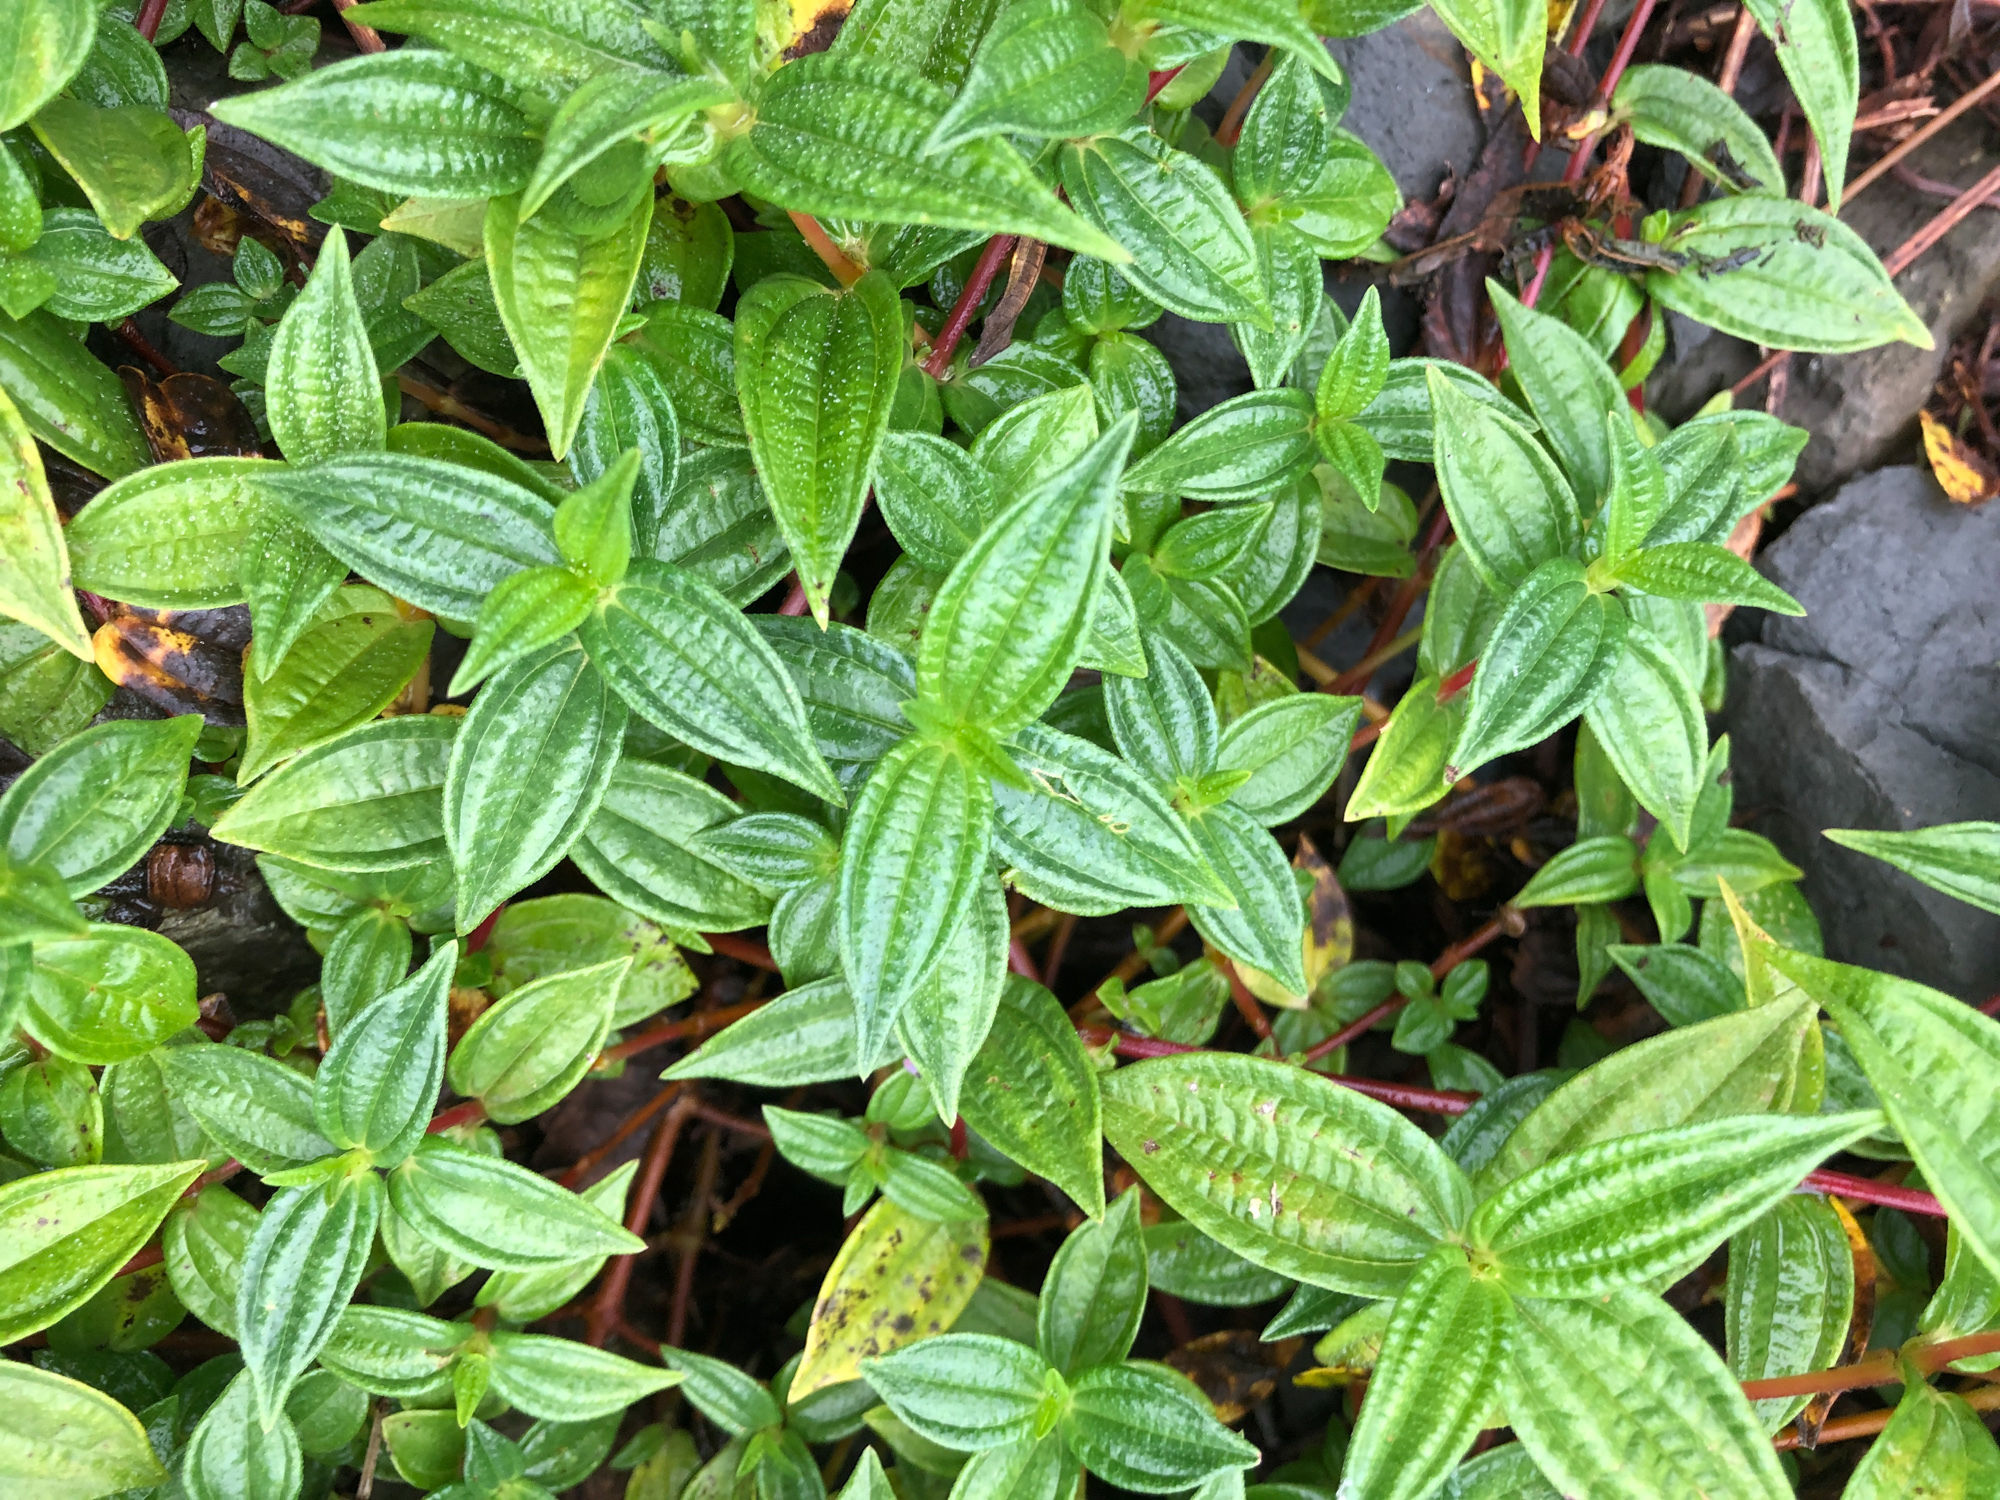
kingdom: Plantae
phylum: Tracheophyta
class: Magnoliopsida
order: Rosales
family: Urticaceae
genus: Gonostegia
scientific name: Gonostegia triandra
